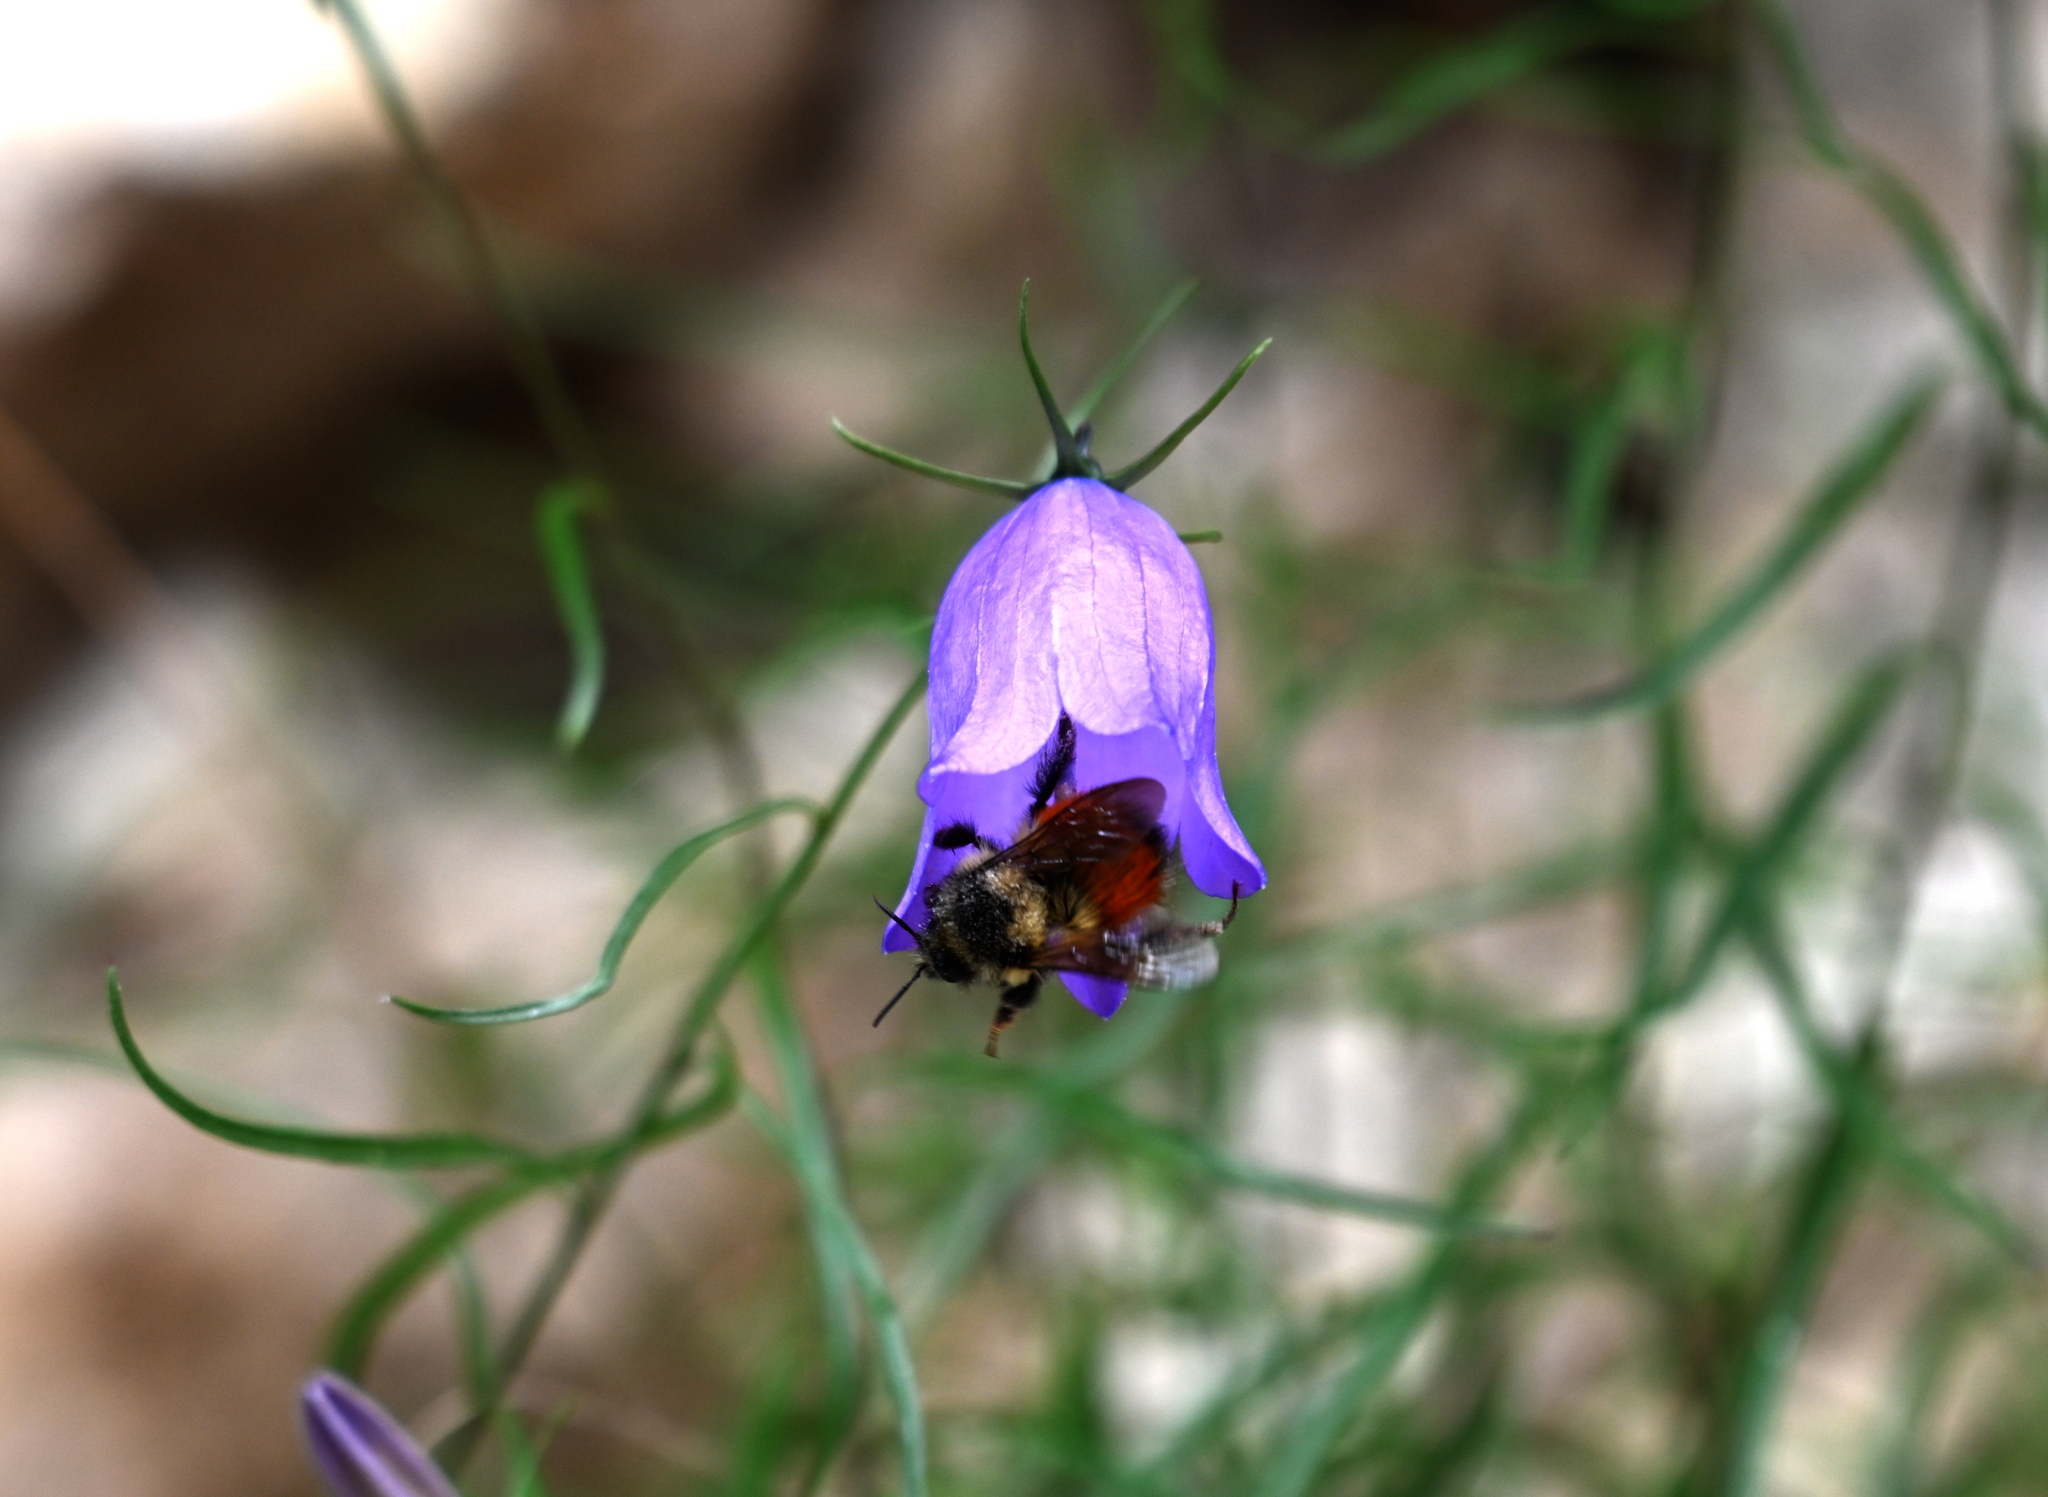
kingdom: Animalia
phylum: Arthropoda
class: Insecta
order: Hymenoptera
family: Apidae
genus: Bombus
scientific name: Bombus melanopygus
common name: Black tail bumble bee
